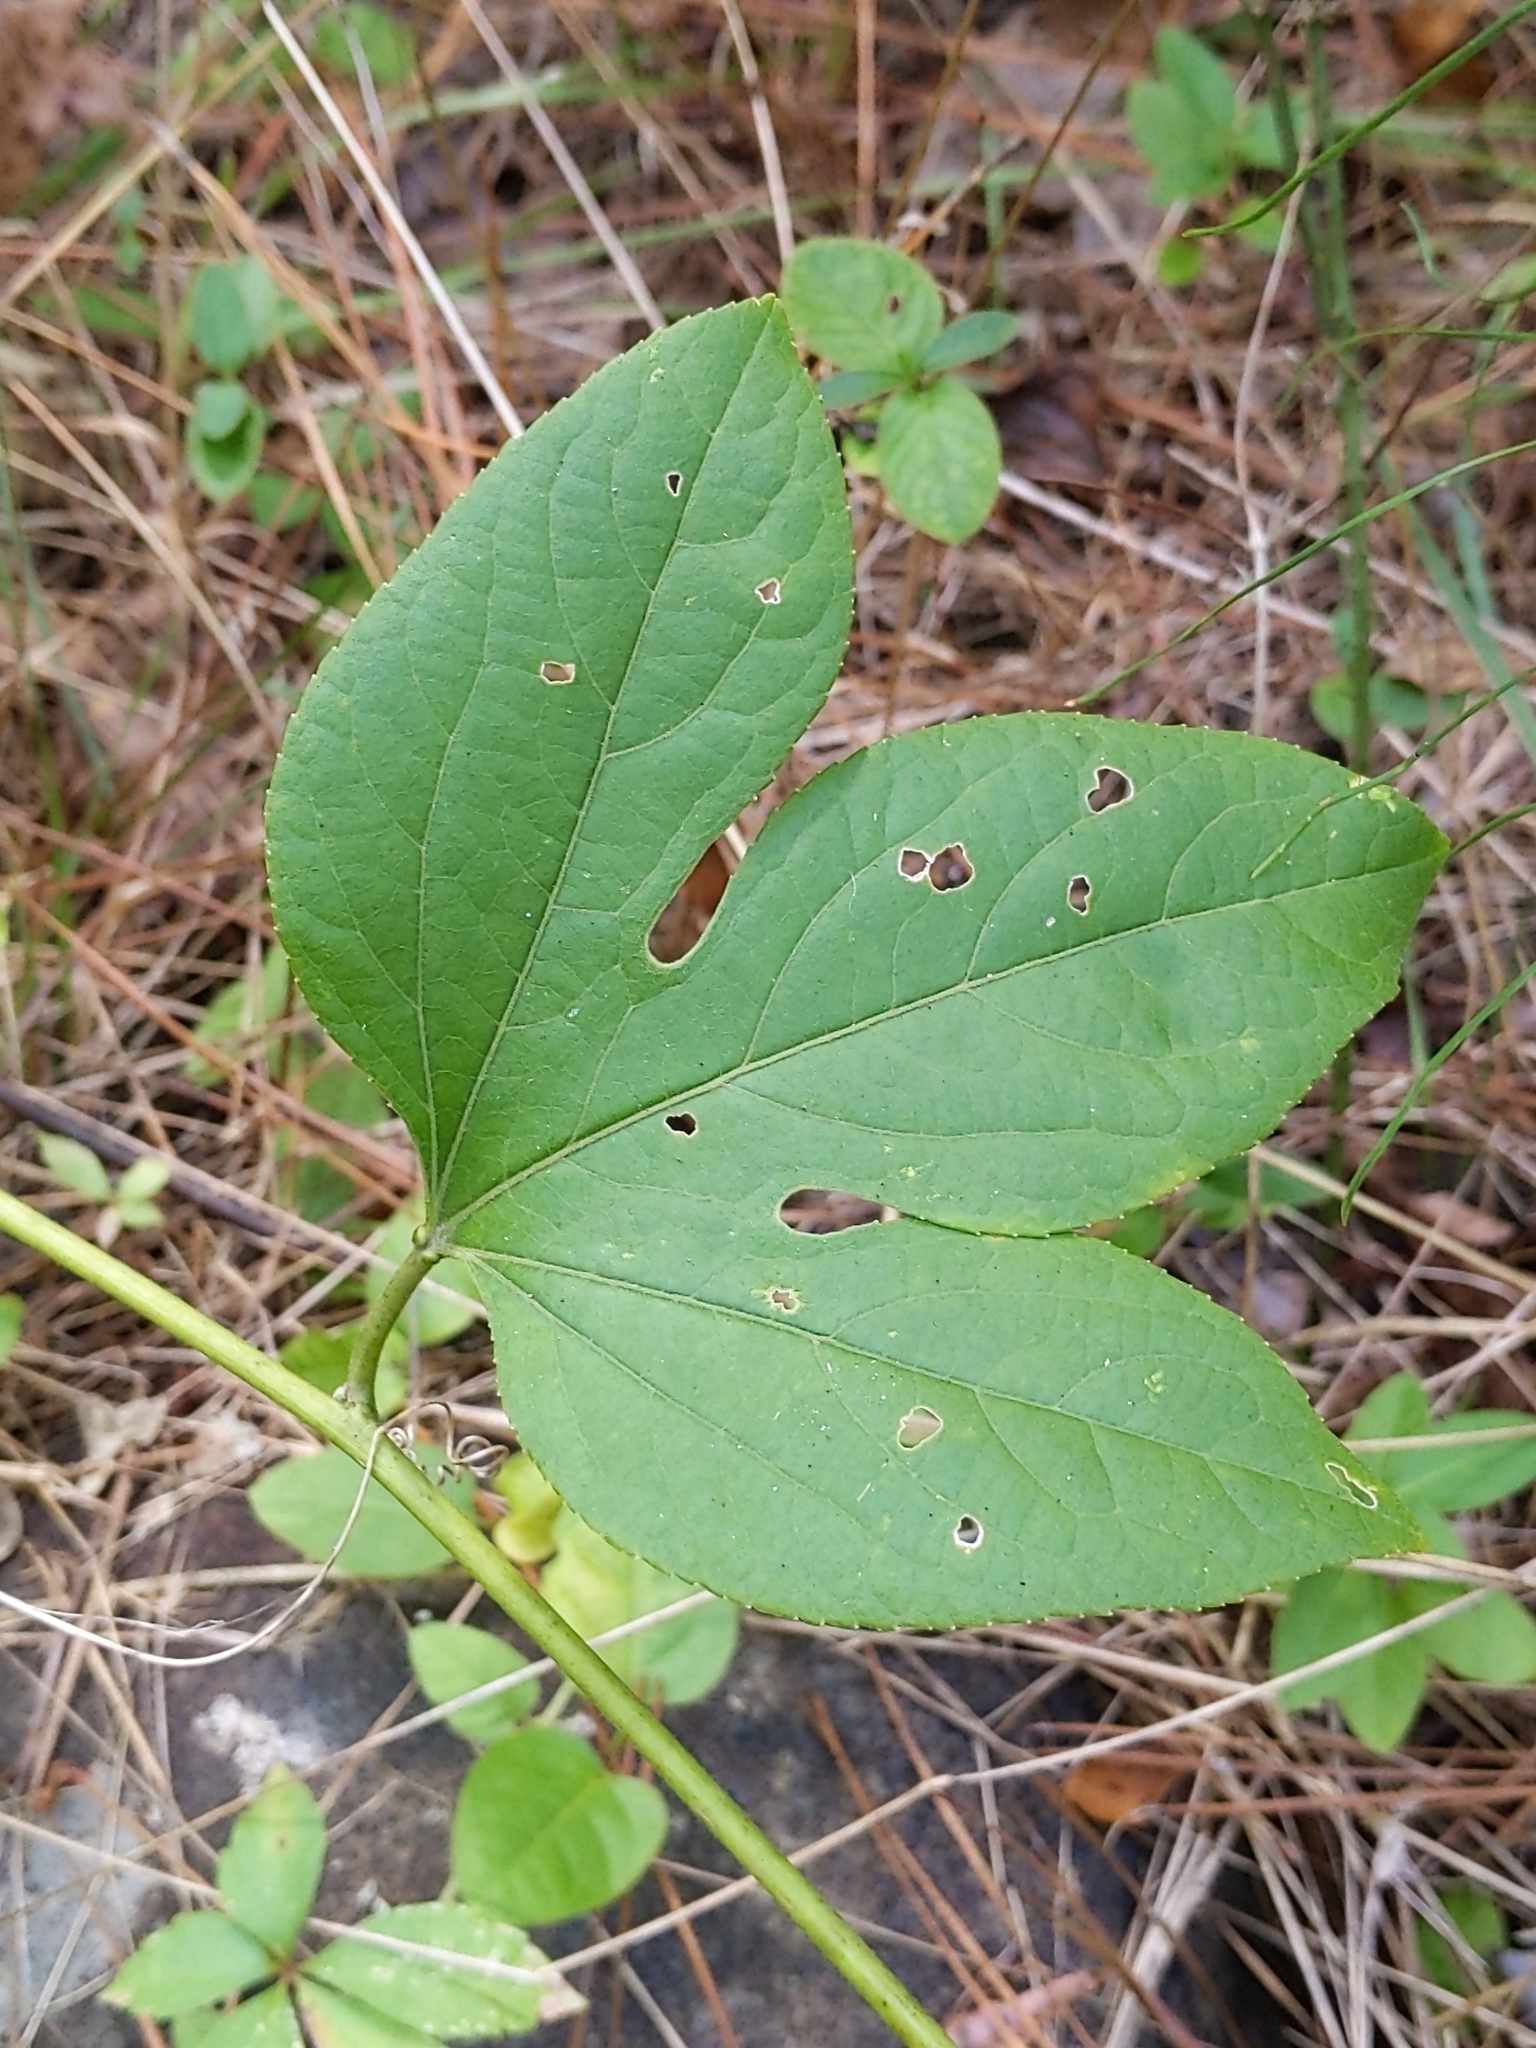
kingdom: Plantae
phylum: Tracheophyta
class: Magnoliopsida
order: Malpighiales
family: Passifloraceae
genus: Passiflora
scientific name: Passiflora incarnata
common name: Apricot-vine
